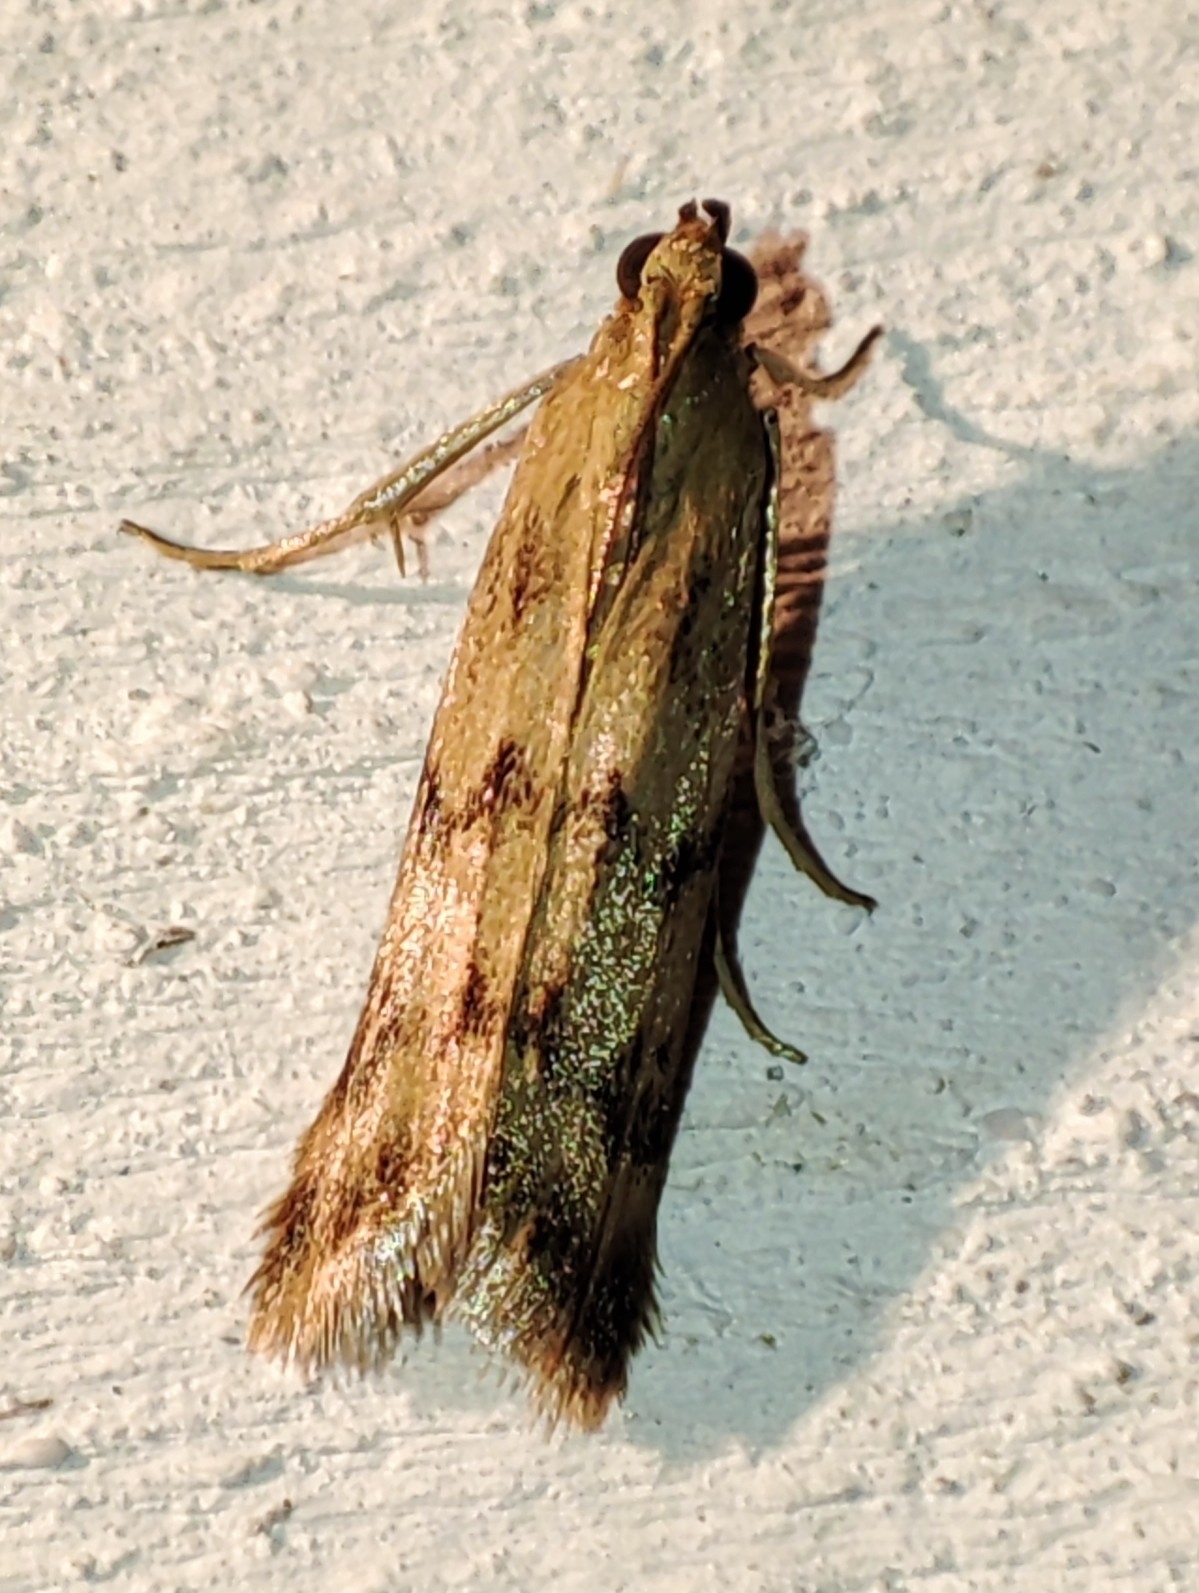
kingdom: Animalia
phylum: Arthropoda
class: Insecta
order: Lepidoptera
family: Pyralidae
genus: Homoeosoma
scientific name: Homoeosoma sinuella
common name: Twin-barred knot-horn
